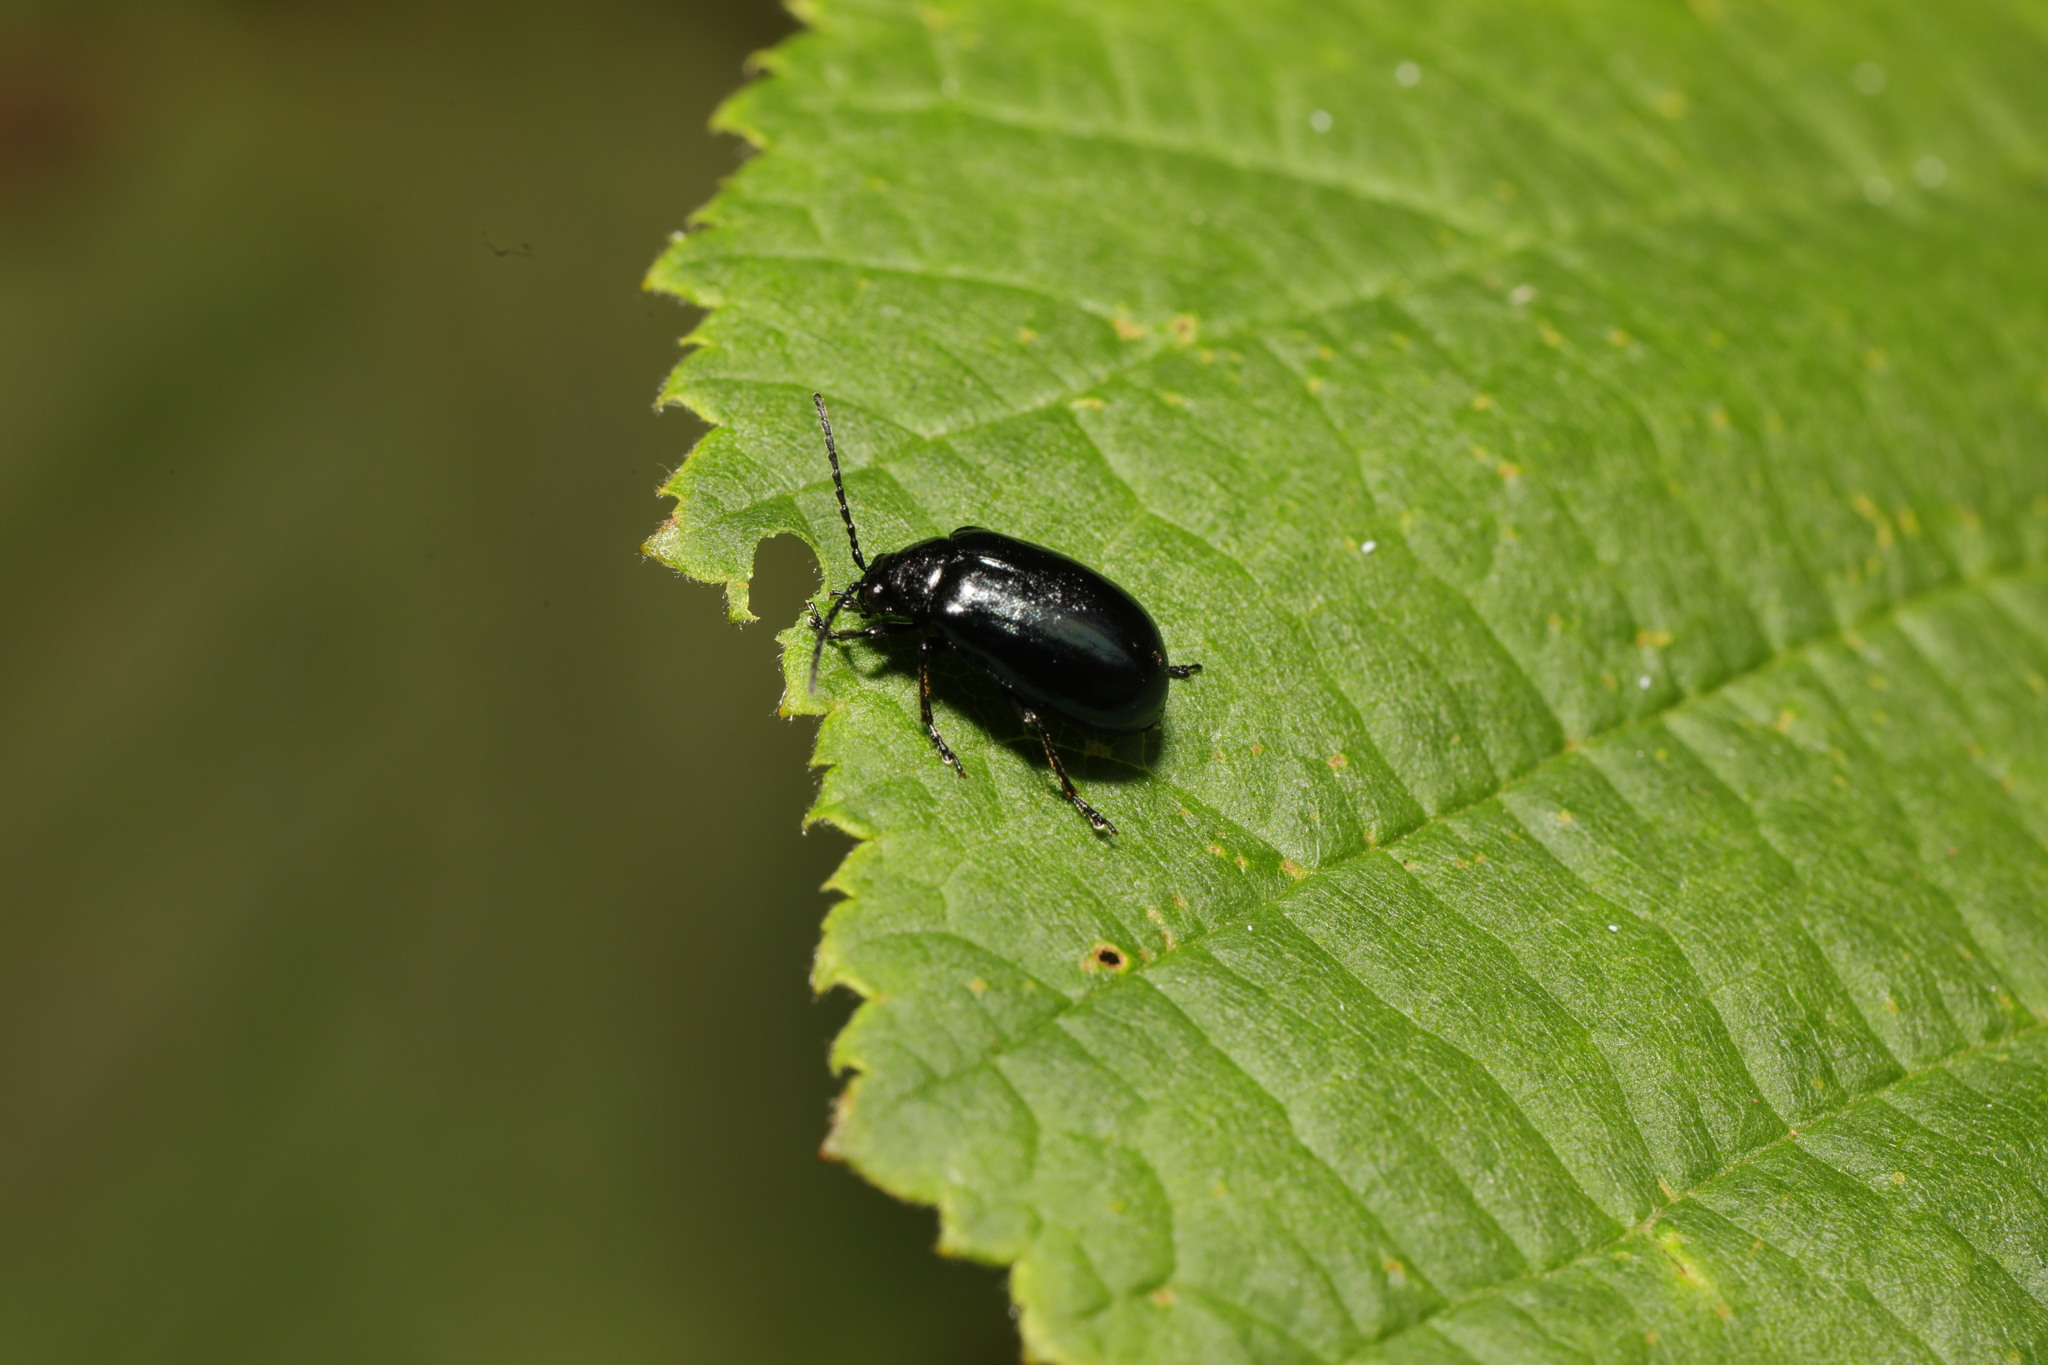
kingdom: Animalia
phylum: Arthropoda
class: Insecta
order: Coleoptera
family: Chrysomelidae
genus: Agelastica
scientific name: Agelastica alni
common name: Alder leaf beetle
